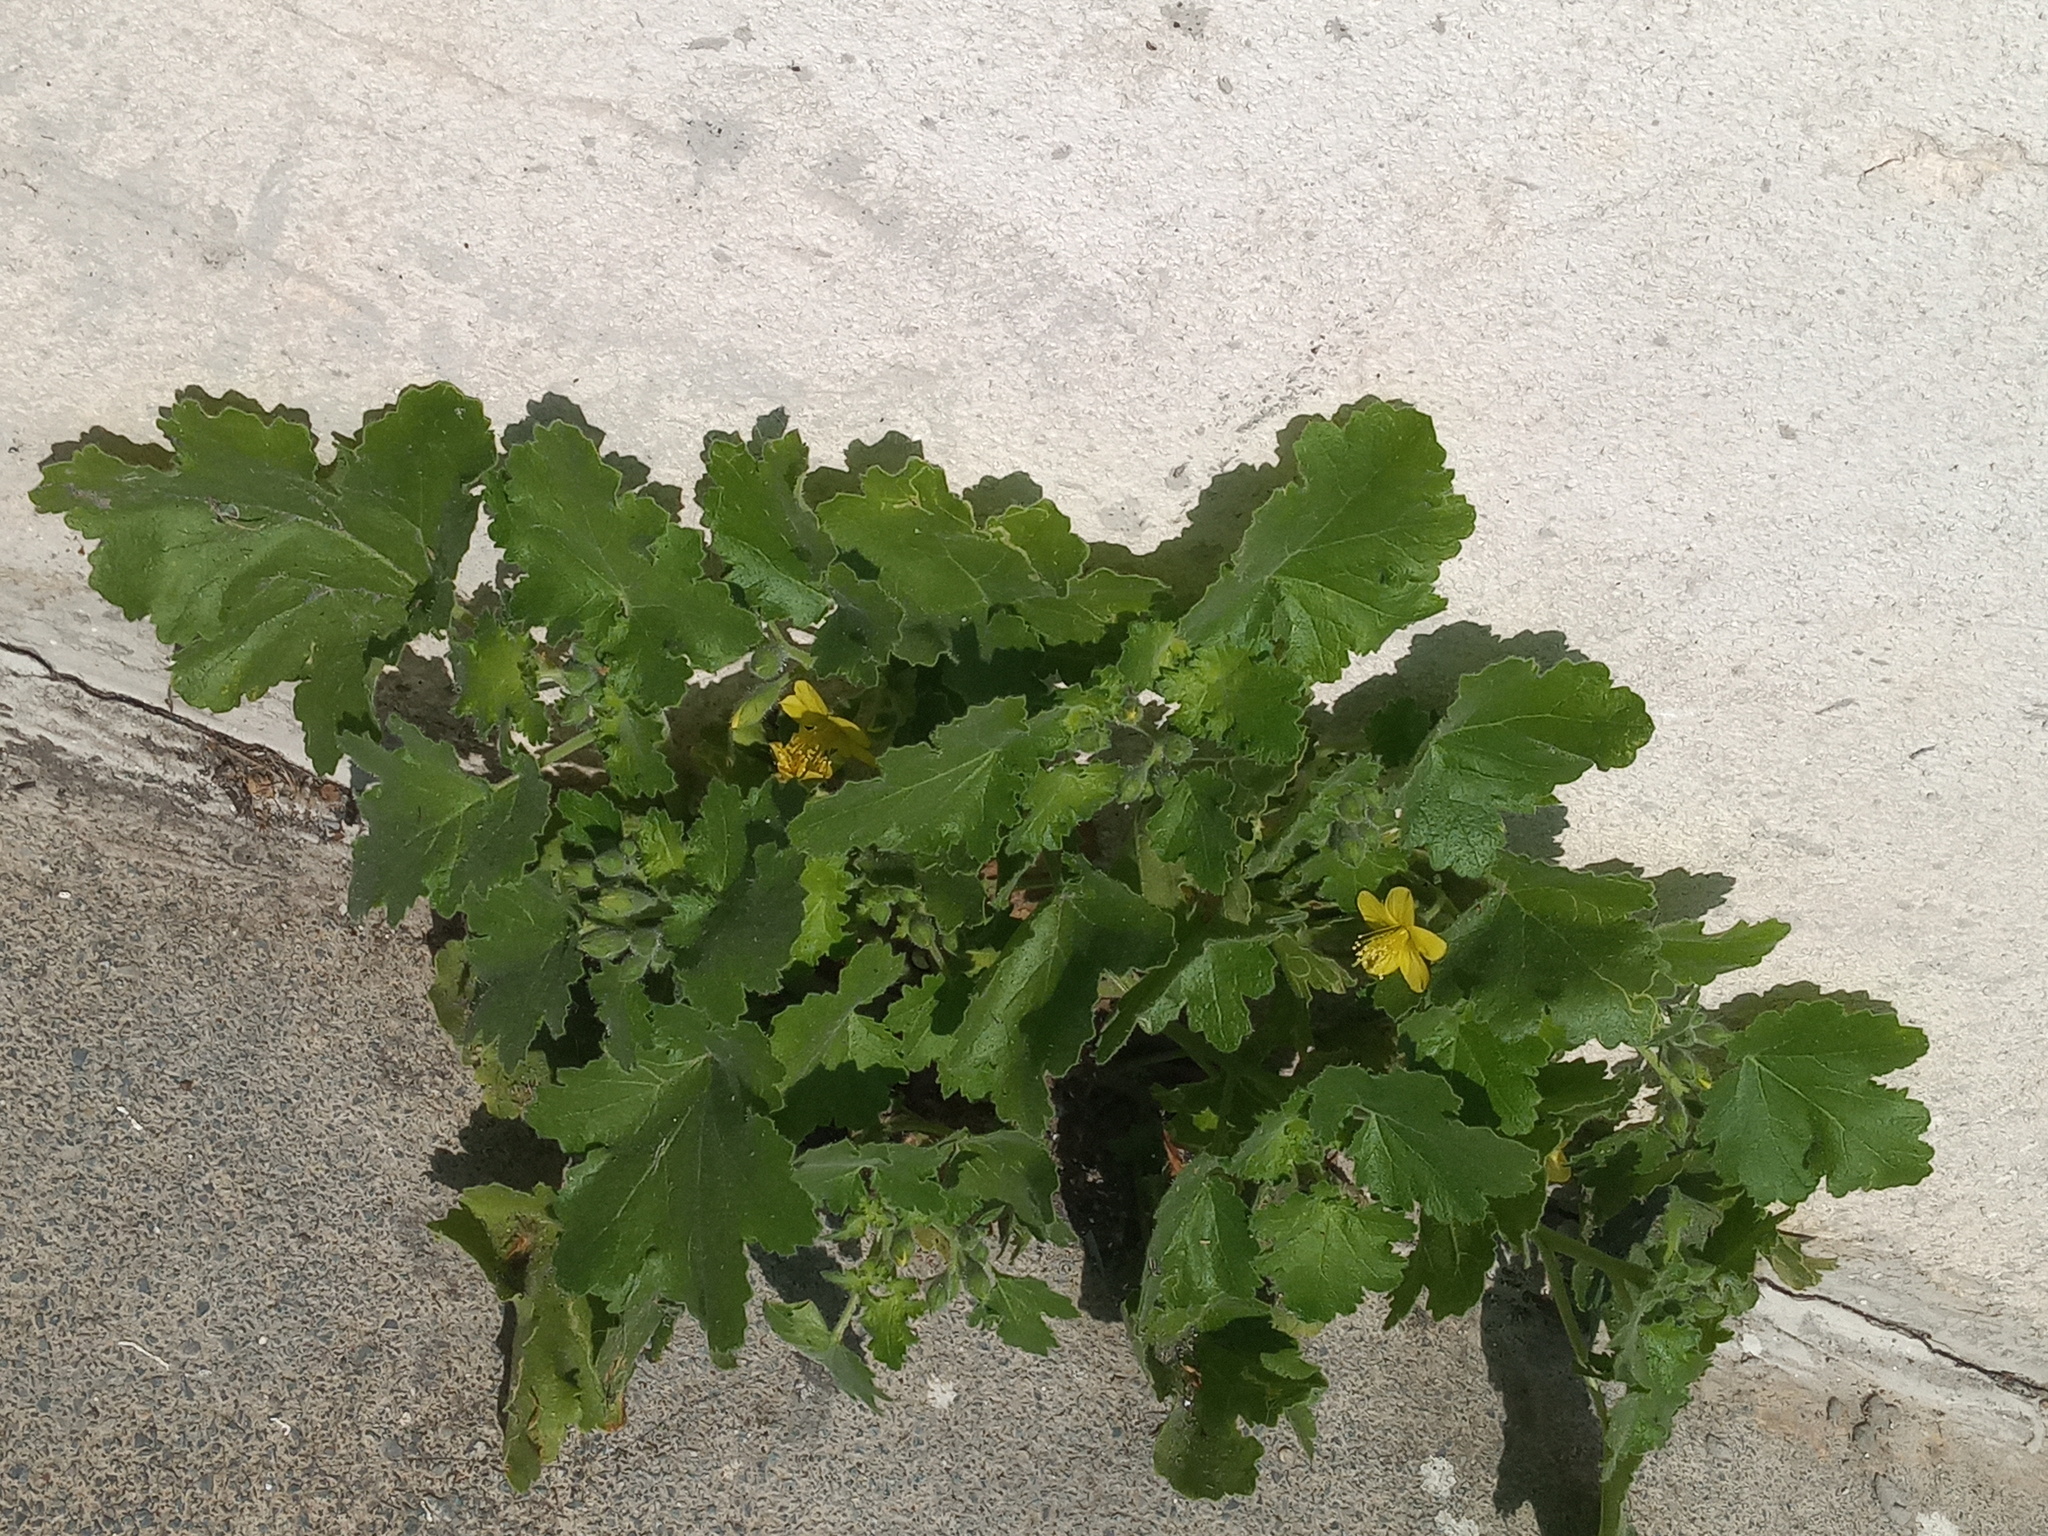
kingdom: Plantae
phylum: Tracheophyta
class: Magnoliopsida
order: Cornales
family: Loasaceae
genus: Eucnide
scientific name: Eucnide lobata
